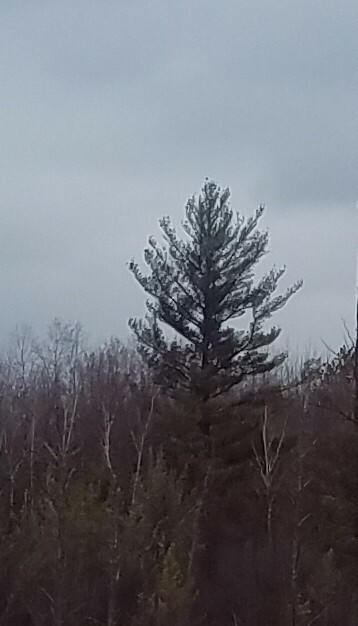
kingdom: Plantae
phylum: Tracheophyta
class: Pinopsida
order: Pinales
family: Pinaceae
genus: Pinus
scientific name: Pinus strobus
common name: Weymouth pine
